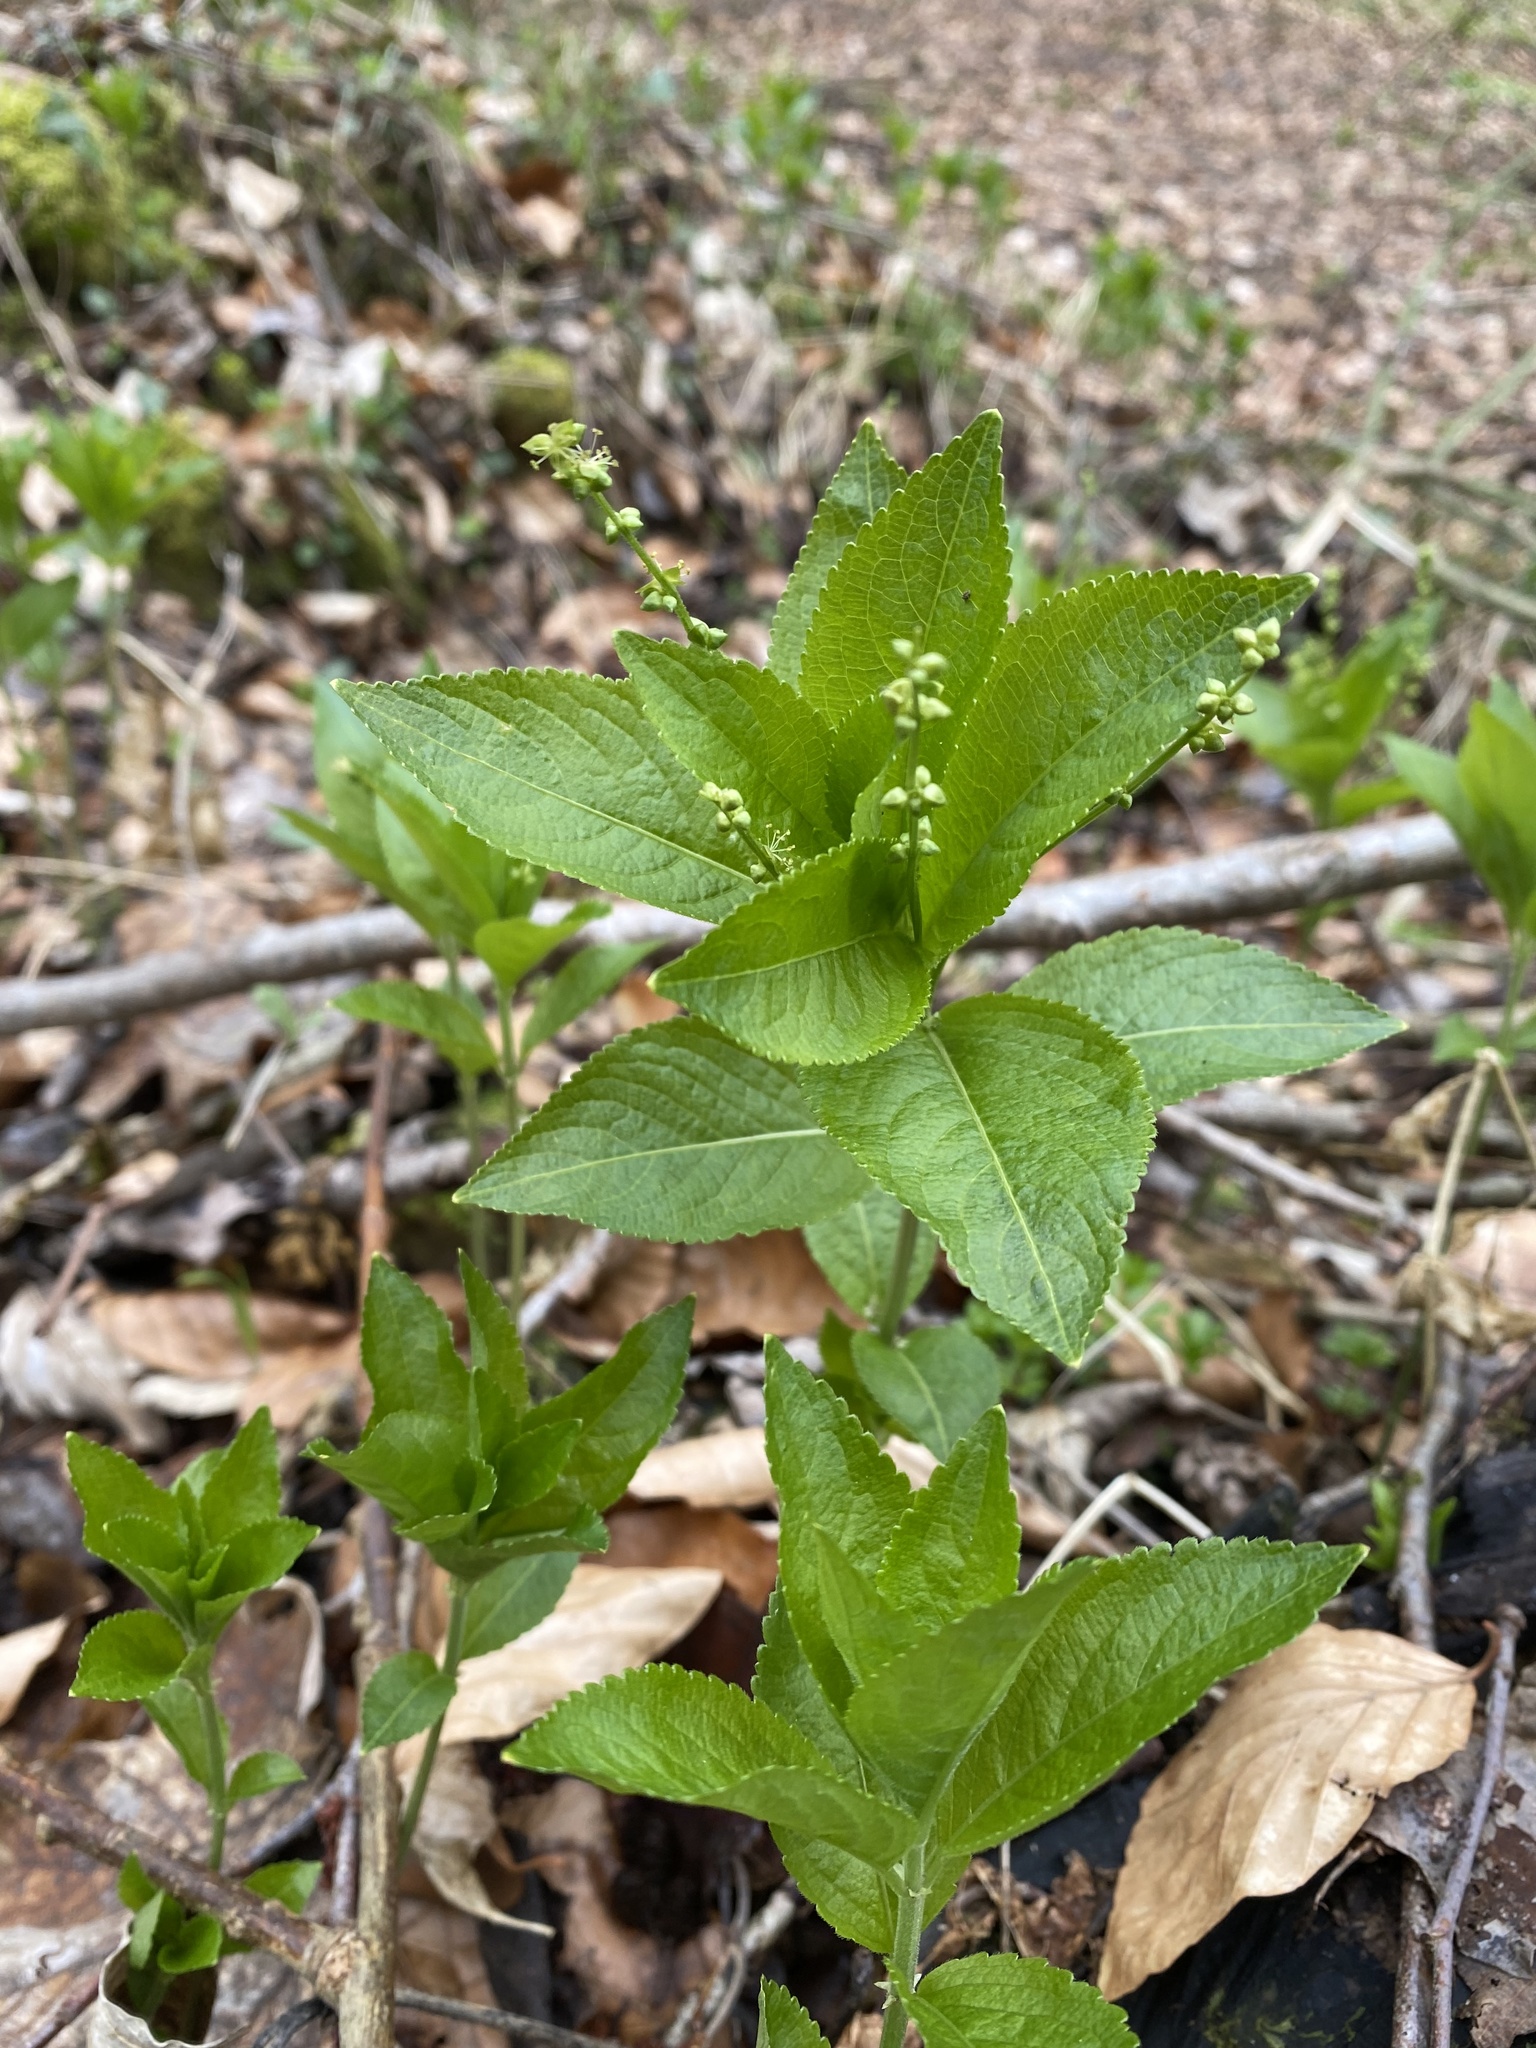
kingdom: Plantae
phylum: Tracheophyta
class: Magnoliopsida
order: Malpighiales
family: Euphorbiaceae
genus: Mercurialis
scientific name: Mercurialis perennis
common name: Dog mercury
